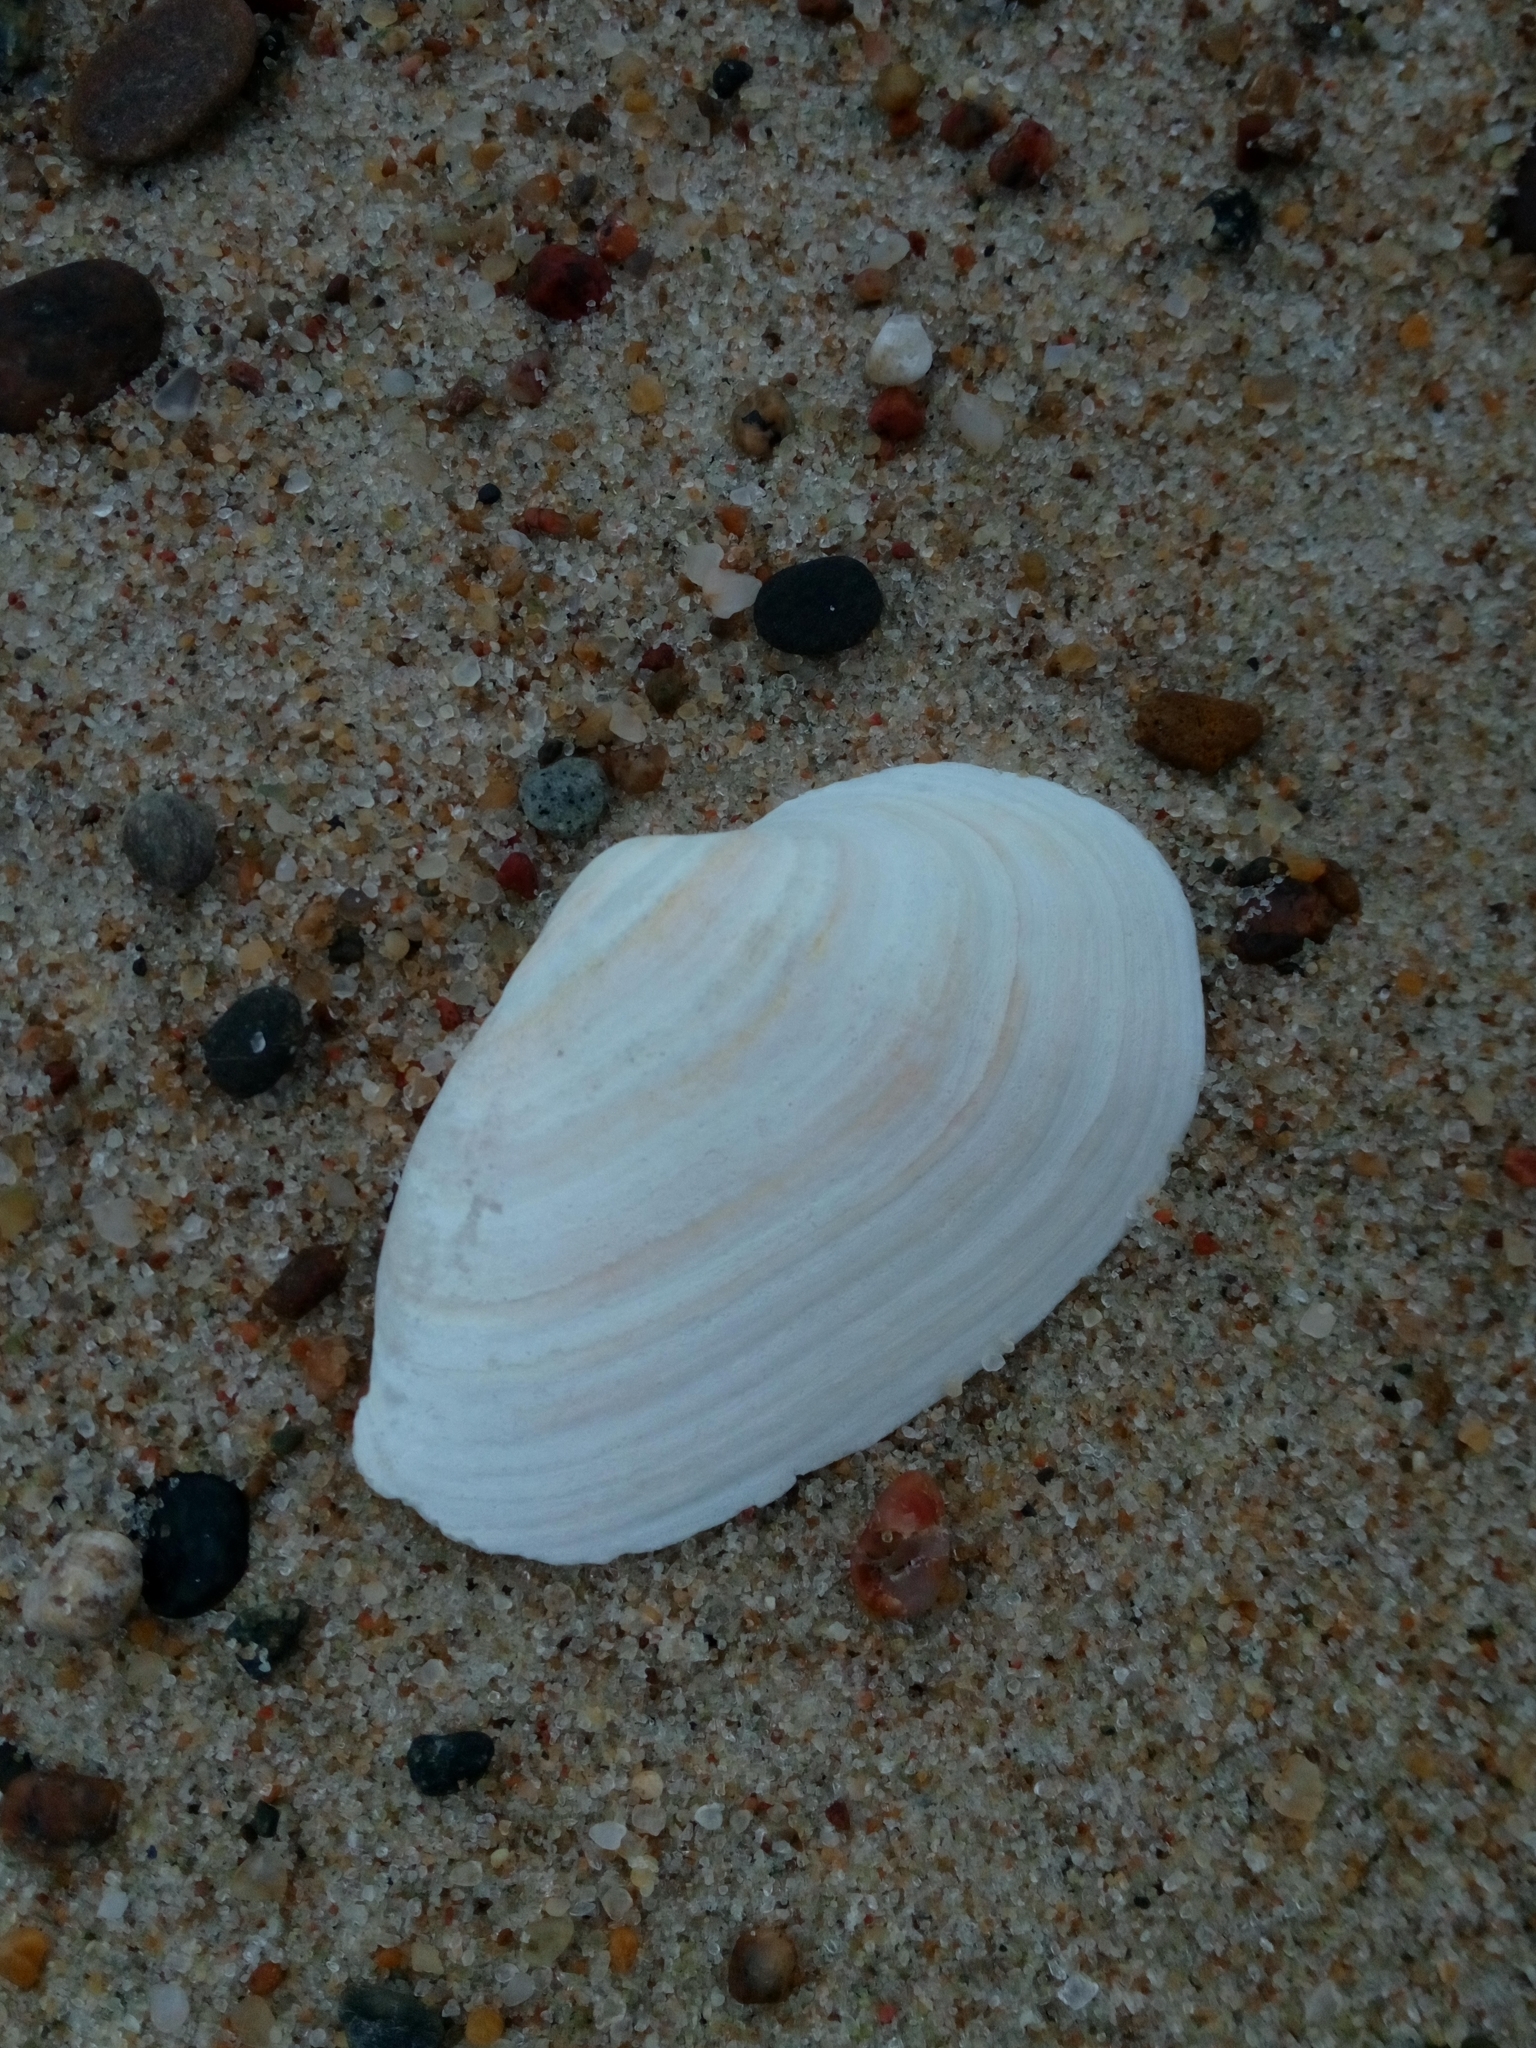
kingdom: Animalia
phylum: Mollusca
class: Bivalvia
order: Myida
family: Myidae
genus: Mya
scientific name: Mya arenaria
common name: Soft-shelled clam
